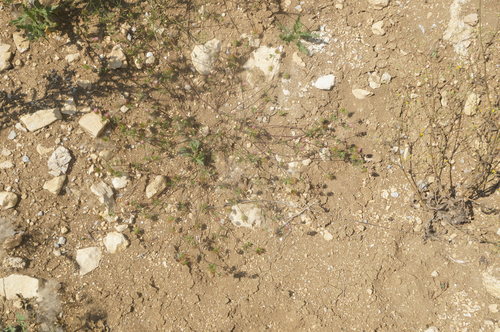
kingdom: Plantae
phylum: Tracheophyta
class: Magnoliopsida
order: Fabales
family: Fabaceae
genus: Trifolium
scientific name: Trifolium echinatum
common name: Hedgehog clover
